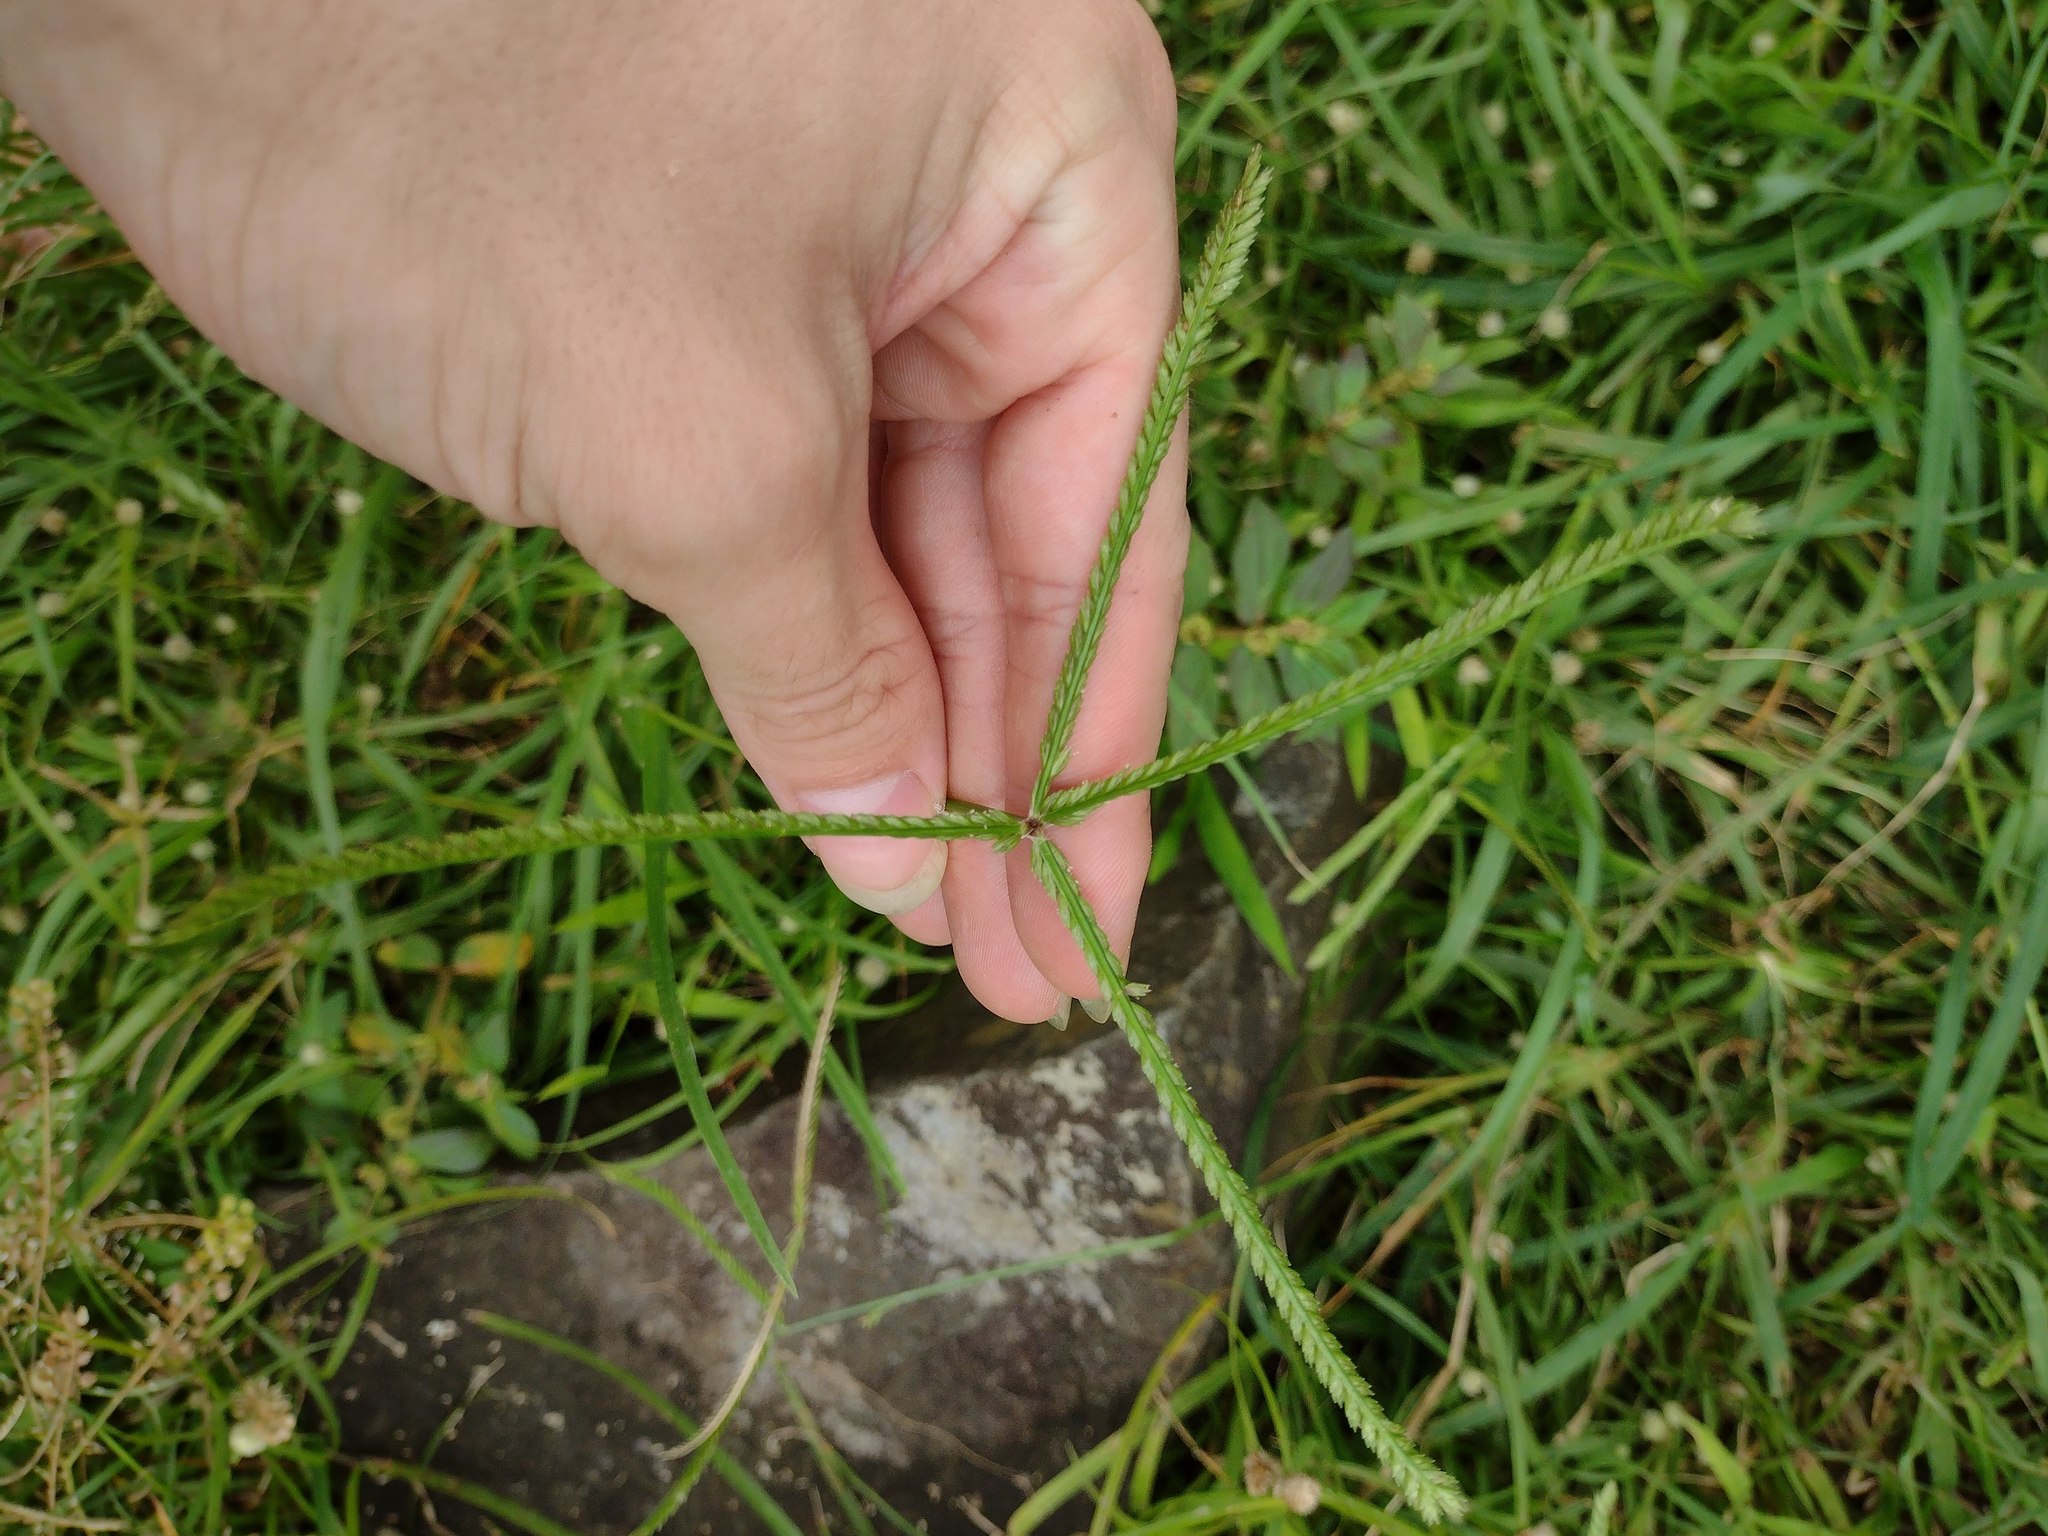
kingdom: Plantae
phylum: Tracheophyta
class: Liliopsida
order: Poales
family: Poaceae
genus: Eleusine
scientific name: Eleusine indica
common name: Yard-grass
